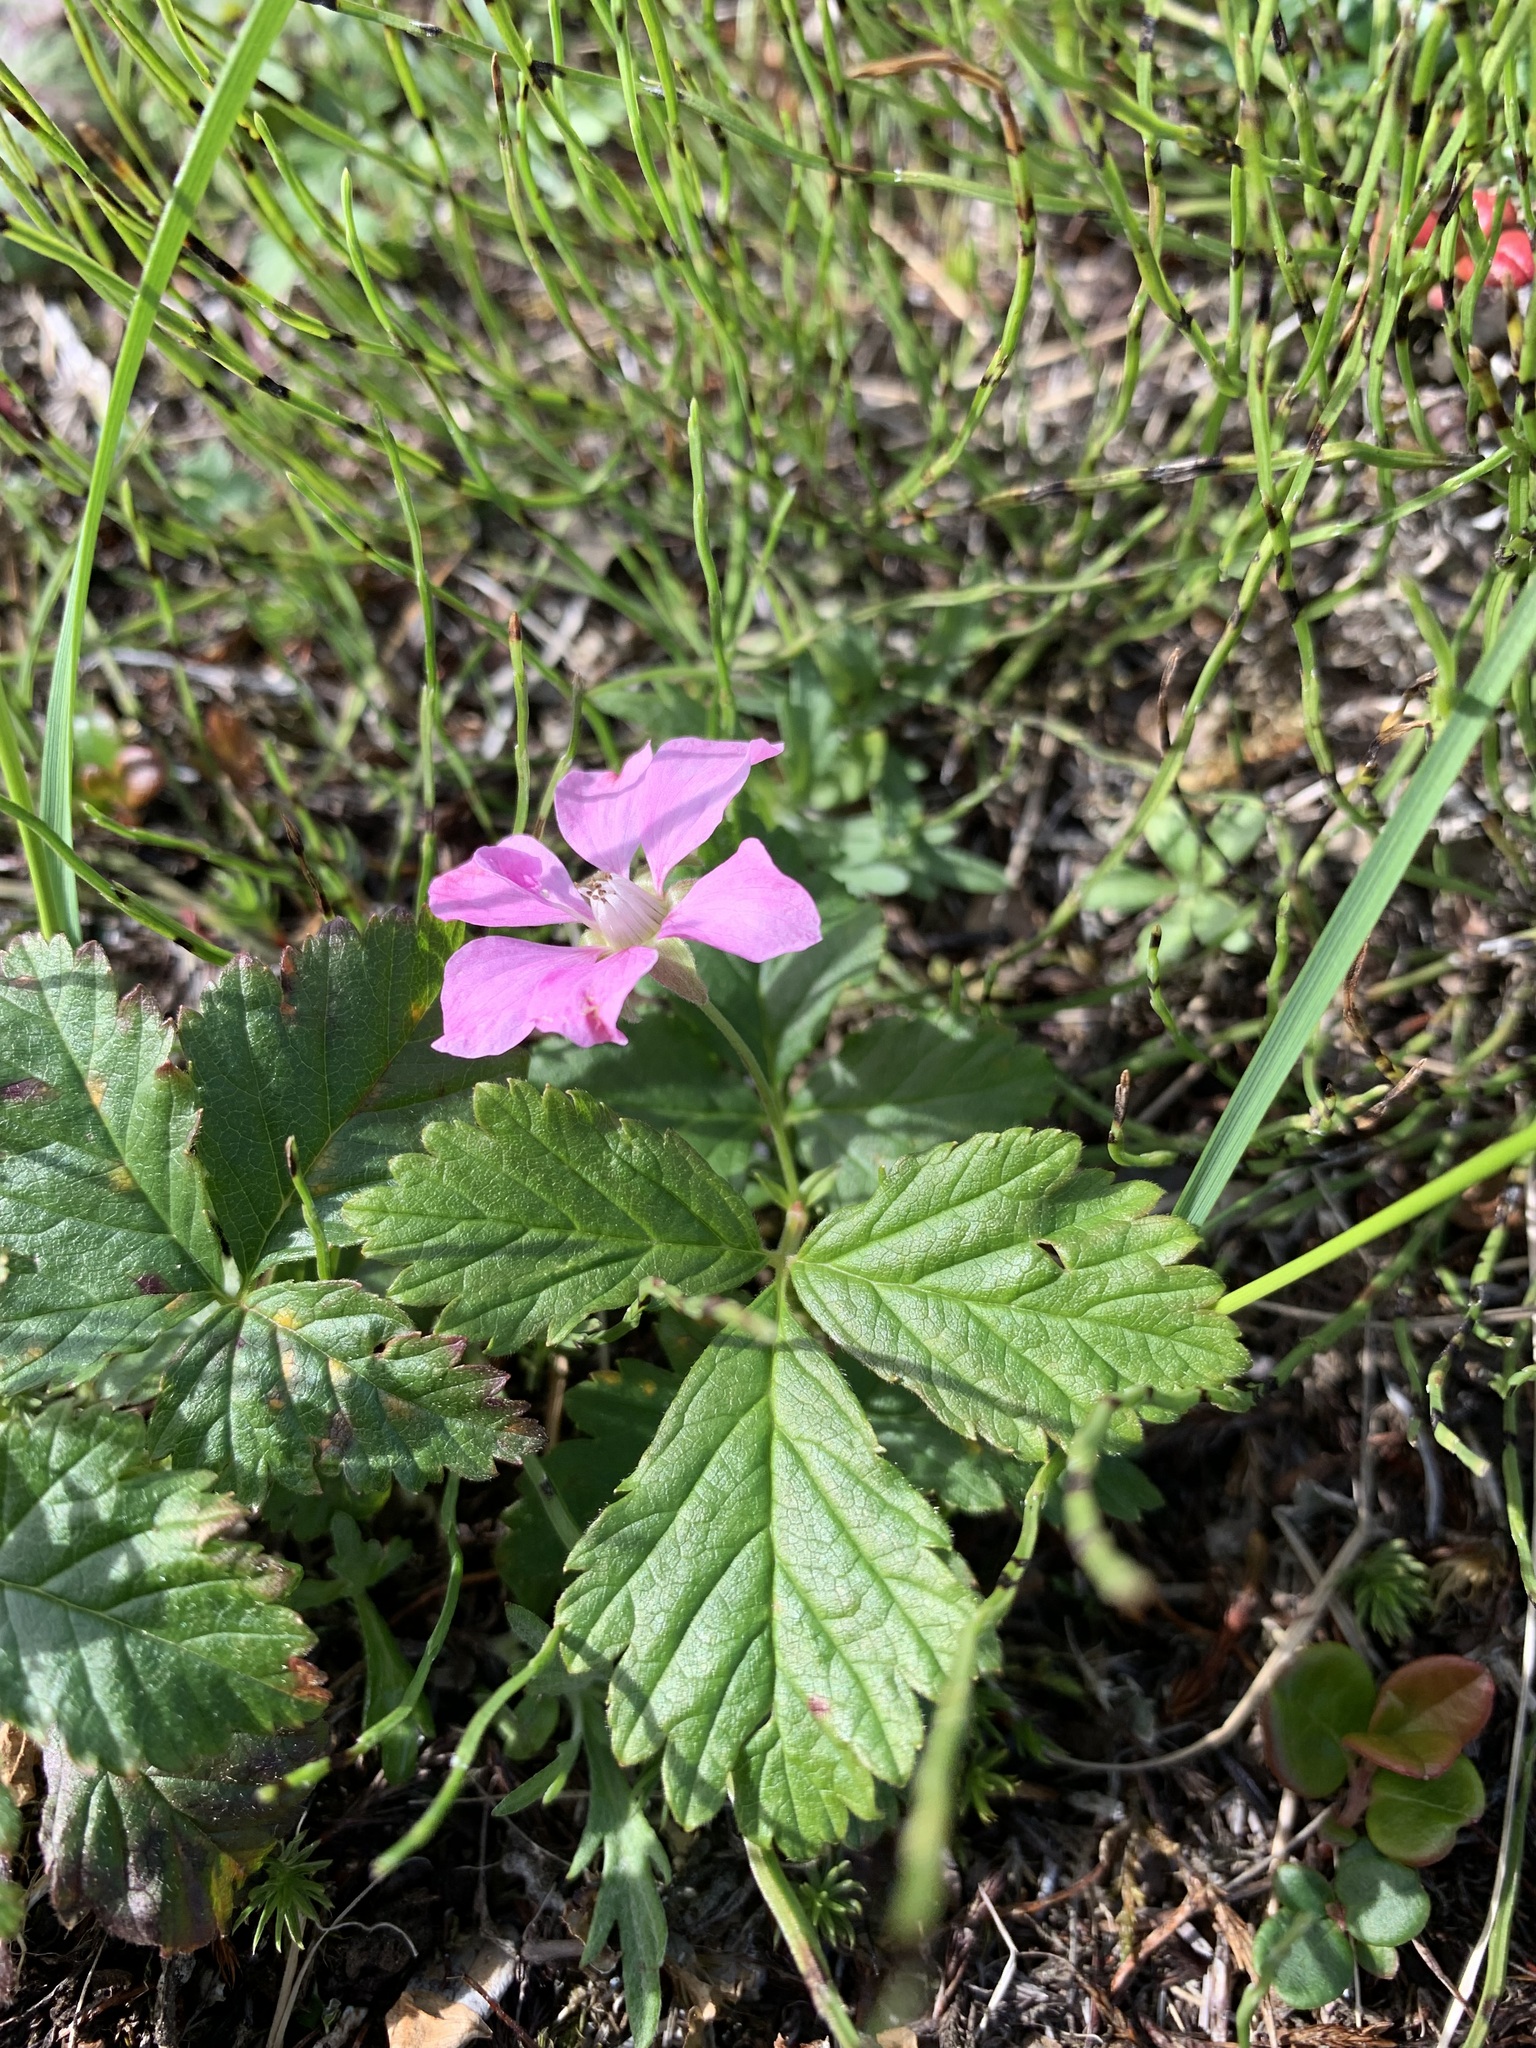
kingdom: Plantae
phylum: Tracheophyta
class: Magnoliopsida
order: Rosales
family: Rosaceae
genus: Rubus
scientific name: Rubus arcticus
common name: Arctic bramble
